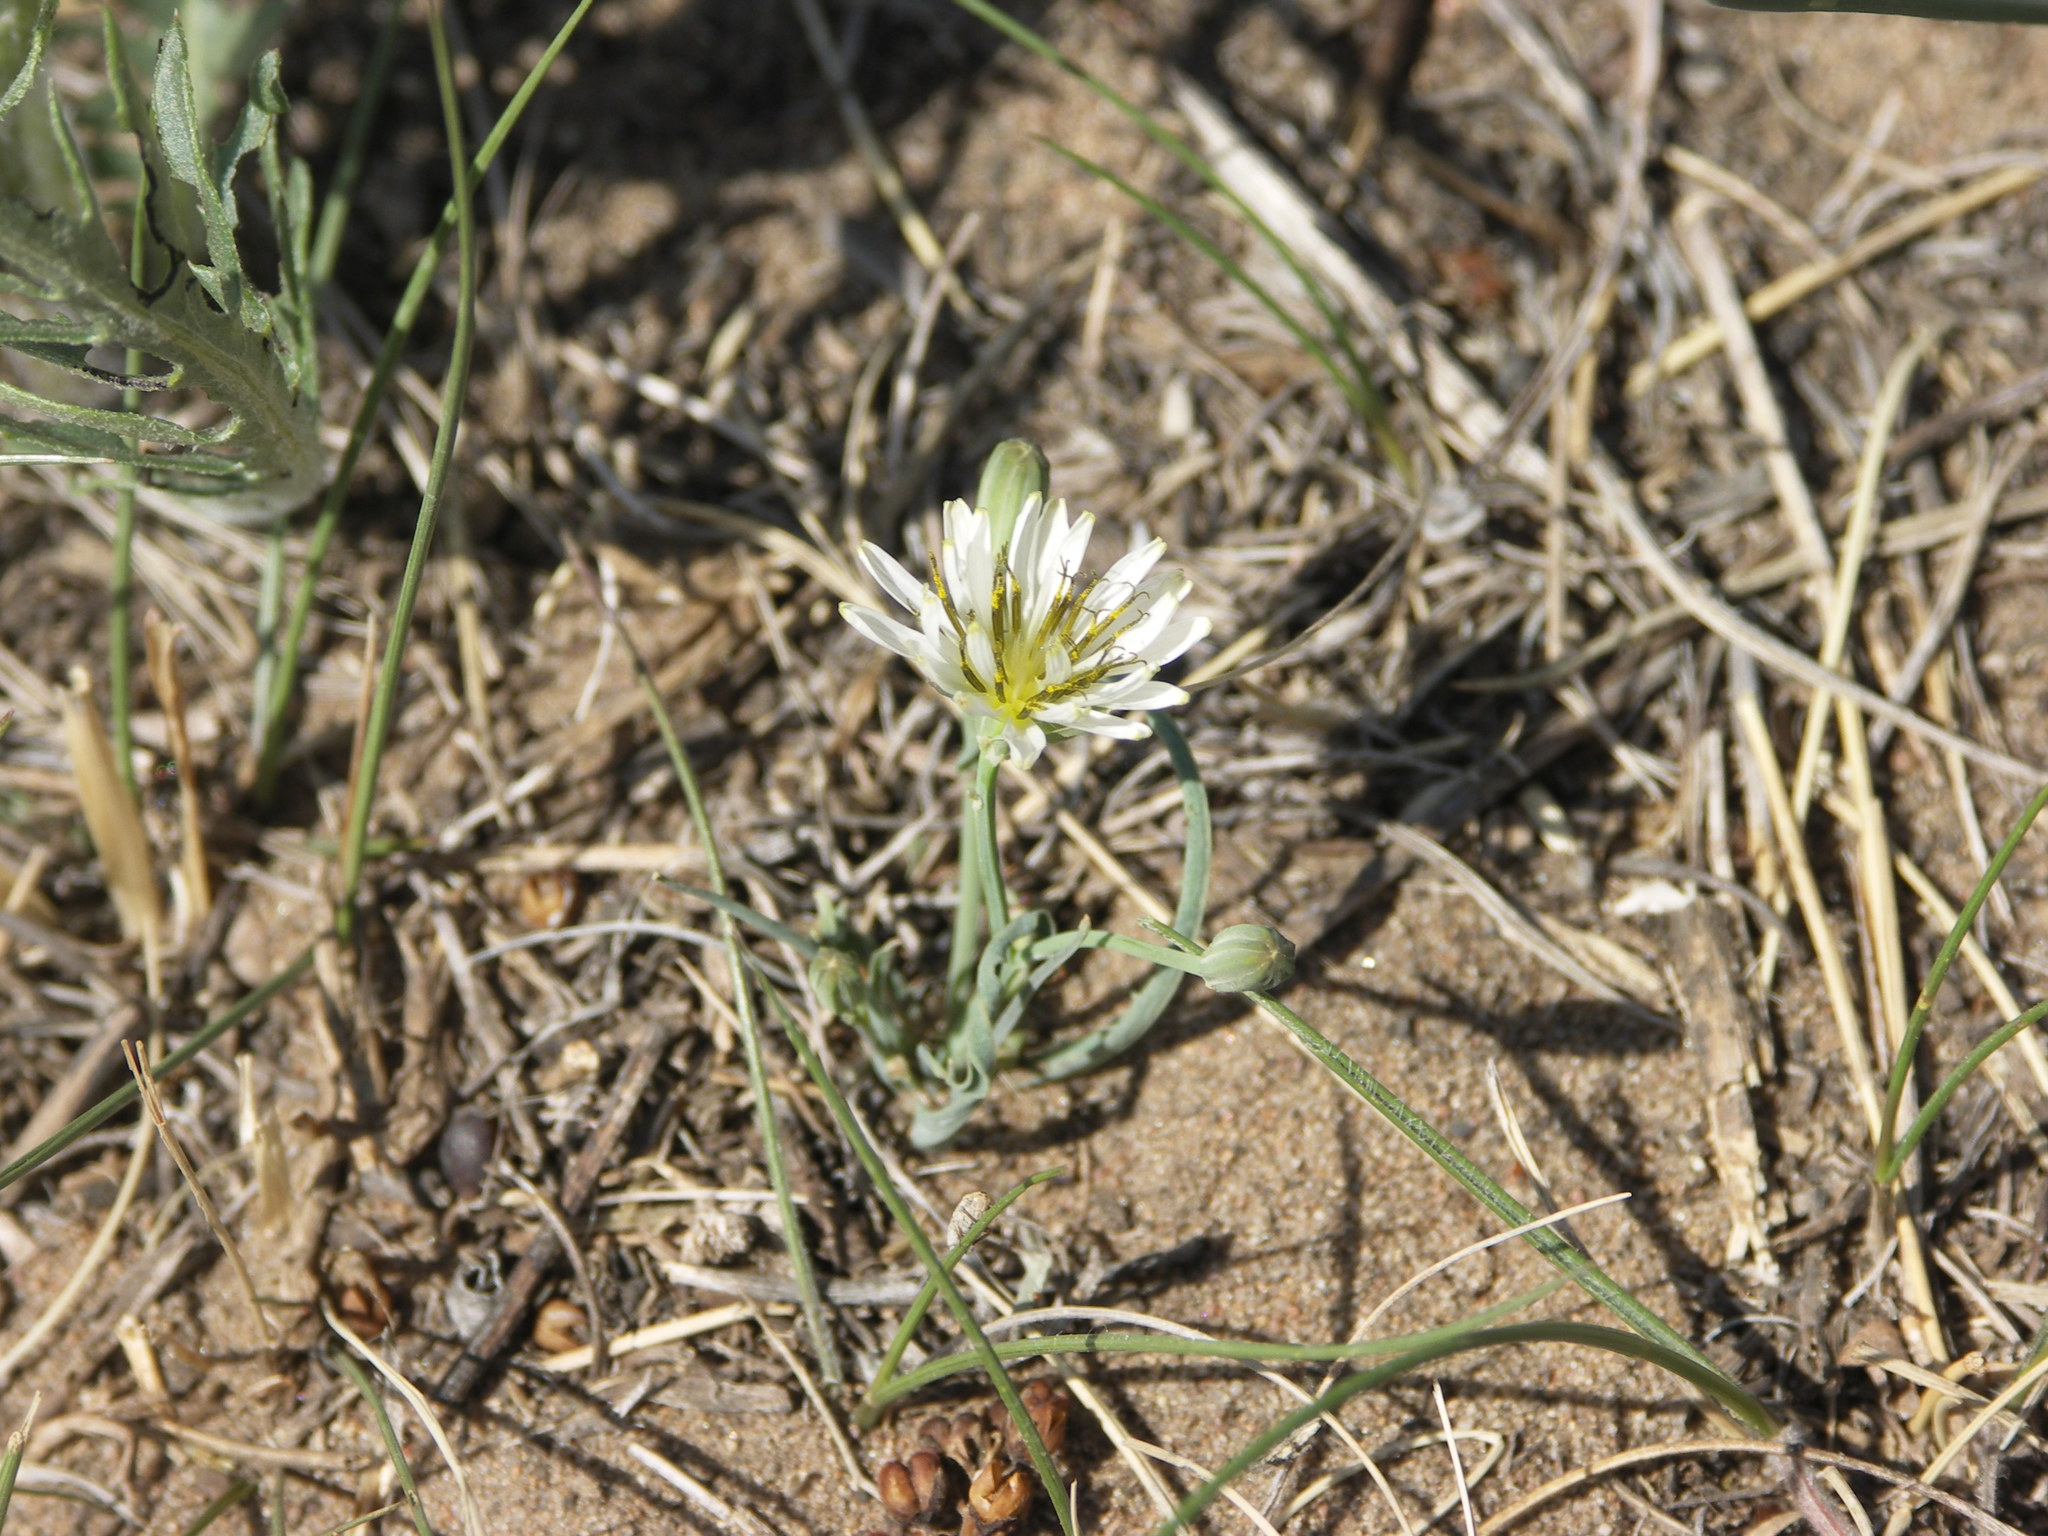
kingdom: Plantae
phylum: Tracheophyta
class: Magnoliopsida
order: Asterales
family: Asteraceae
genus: Ixeris
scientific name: Ixeris chinensis
